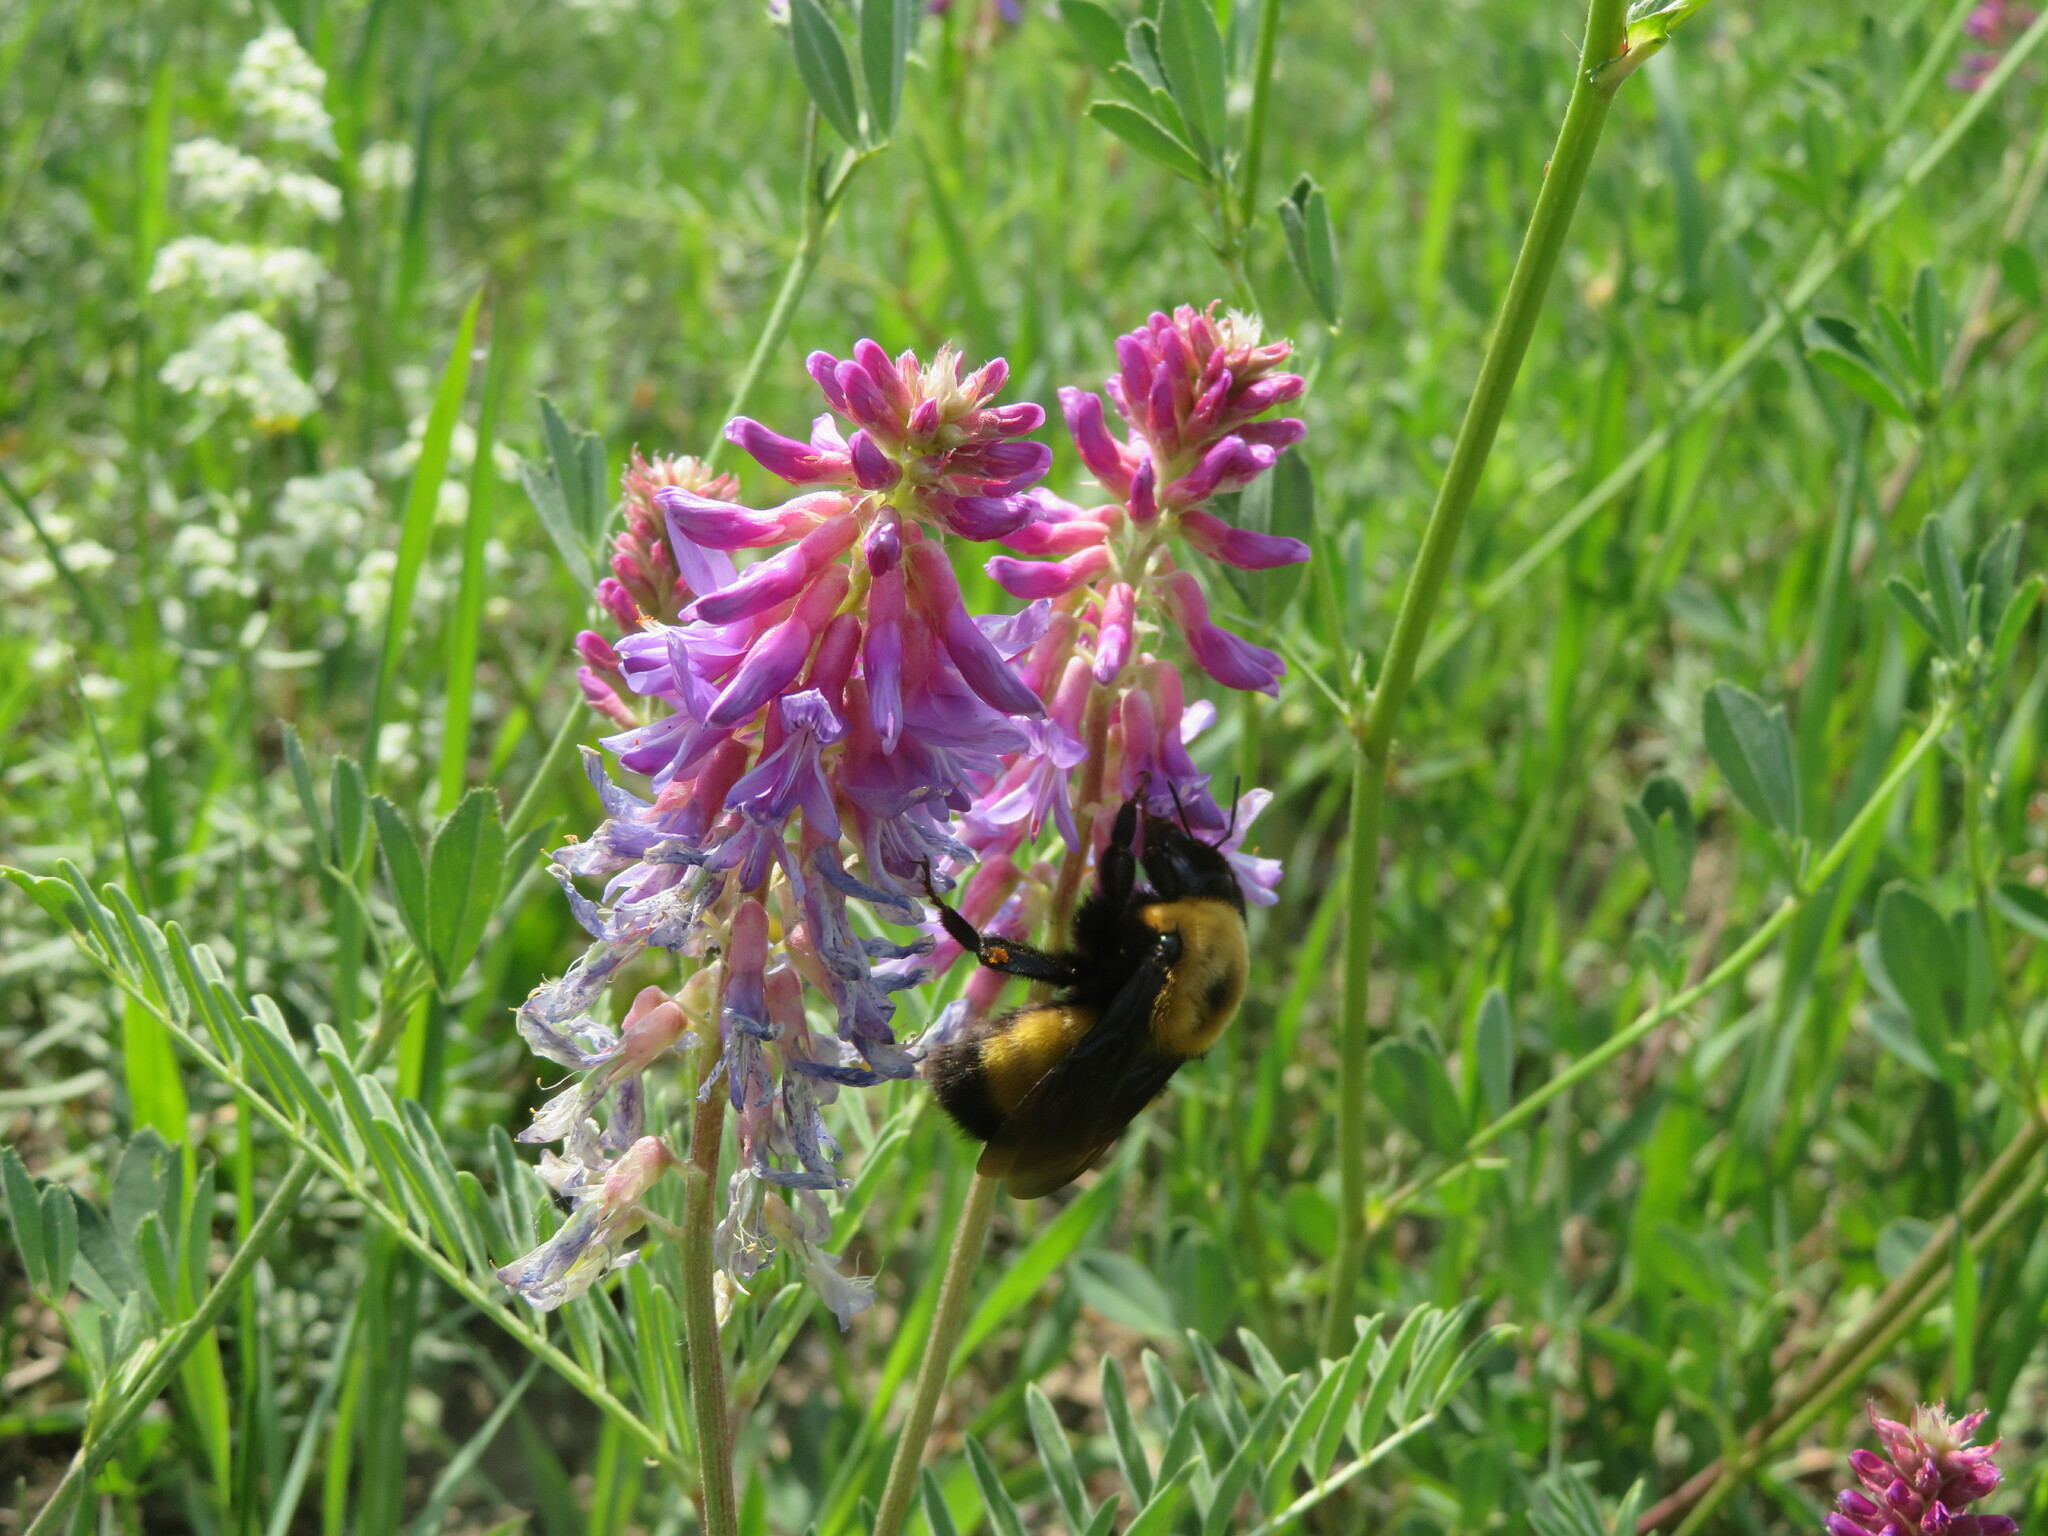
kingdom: Animalia
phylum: Arthropoda
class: Insecta
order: Hymenoptera
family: Apidae
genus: Bombus
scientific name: Bombus nevadensis
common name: Nevada bumble bee
